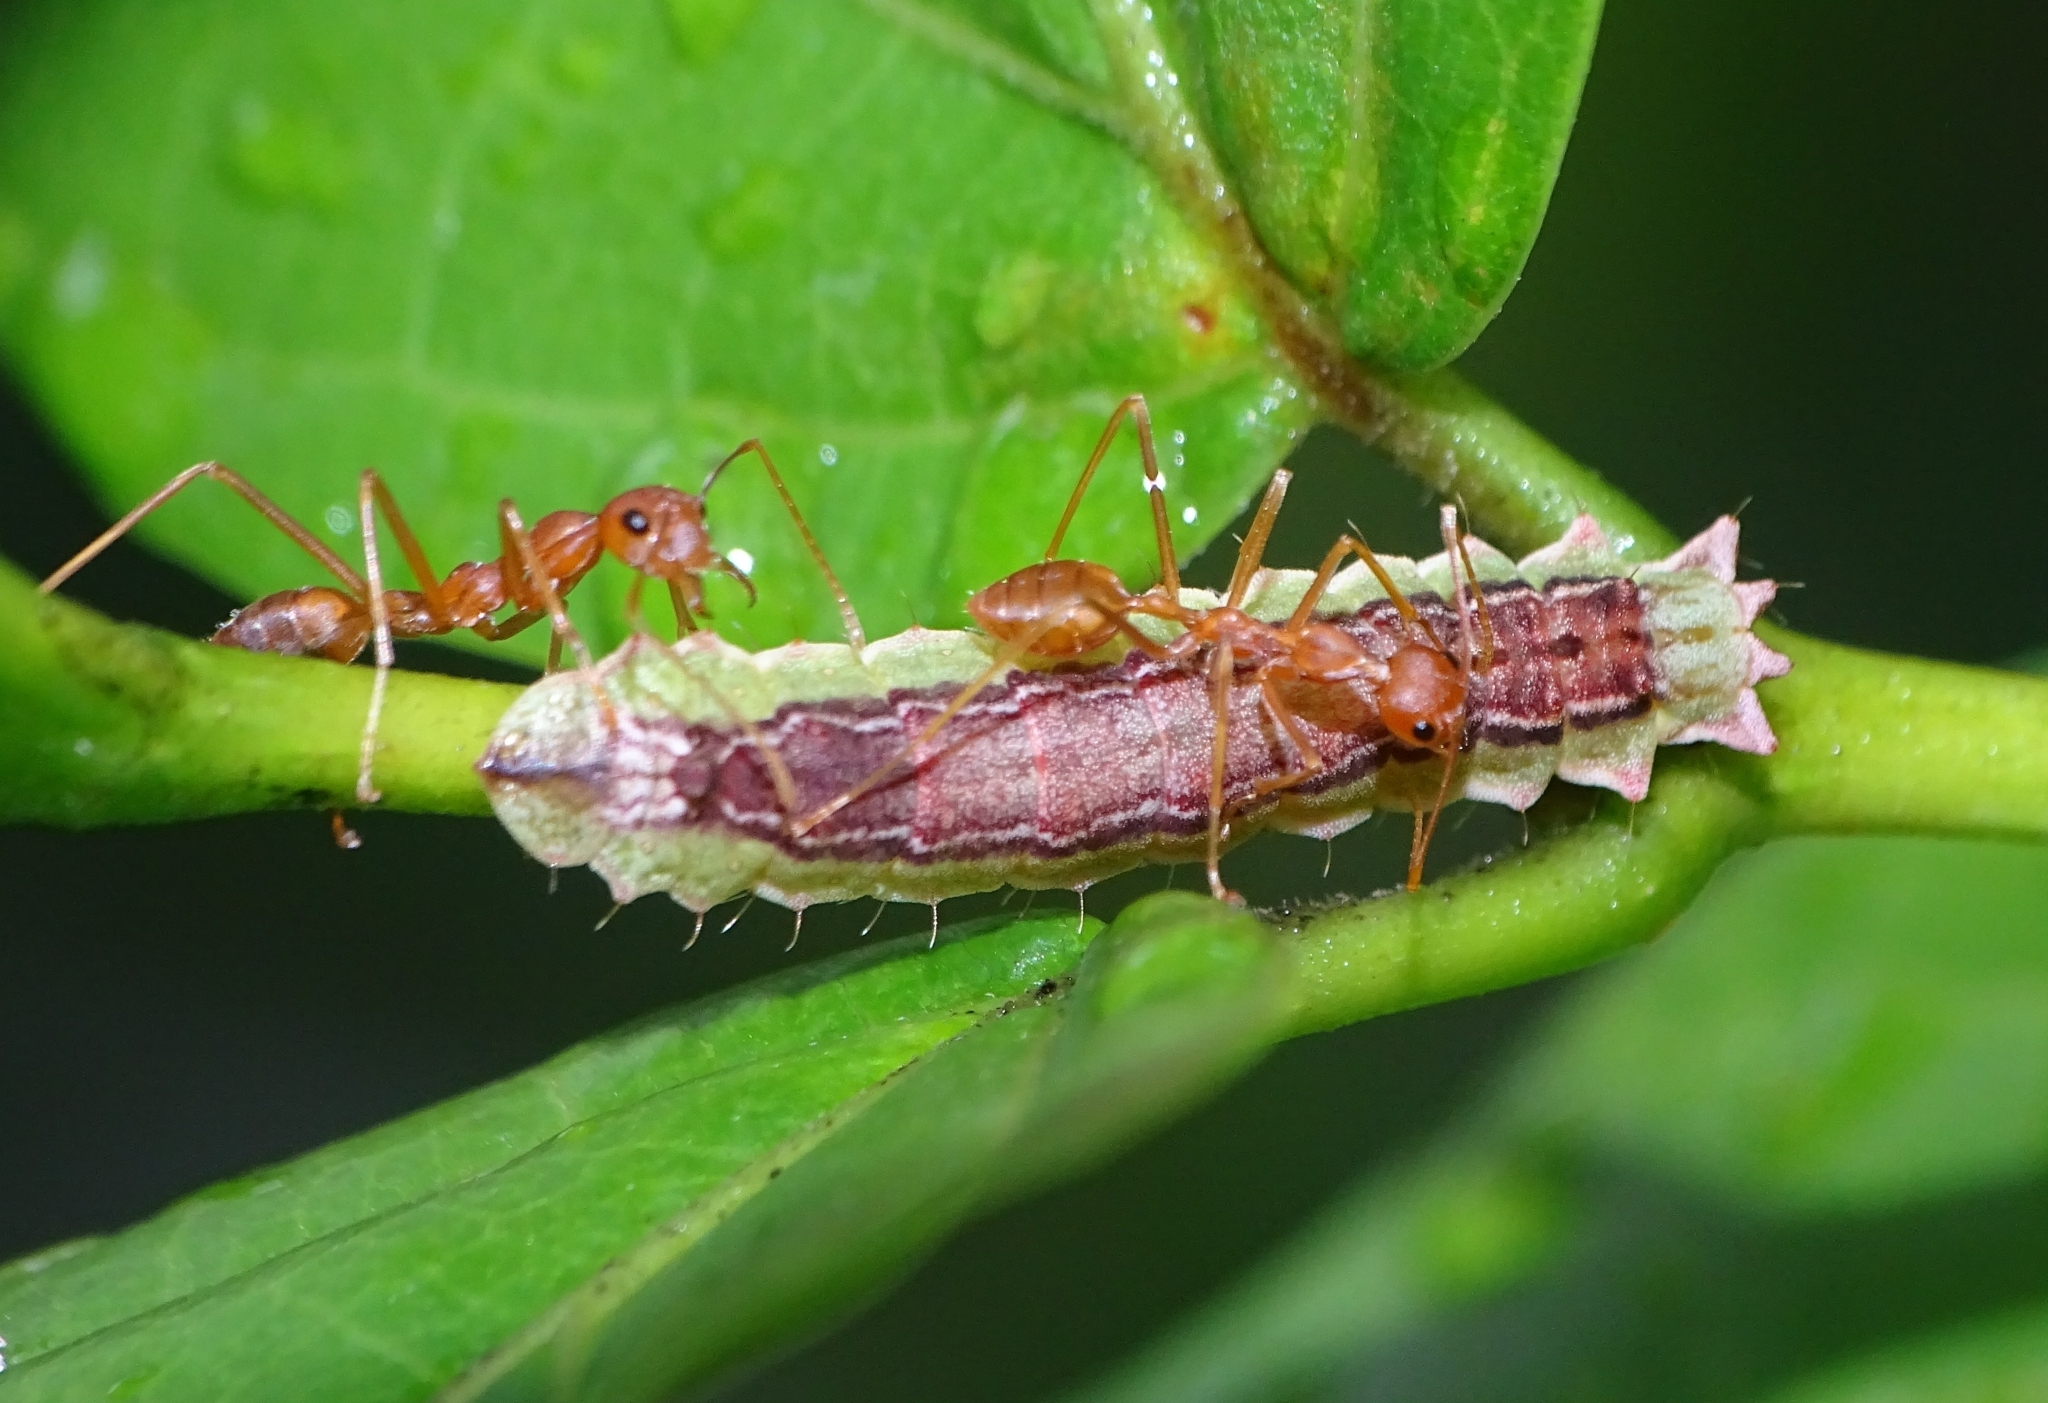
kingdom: Animalia
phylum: Arthropoda
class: Insecta
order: Lepidoptera
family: Lycaenidae
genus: Zesius
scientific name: Zesius chrysomallus
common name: Redspot
